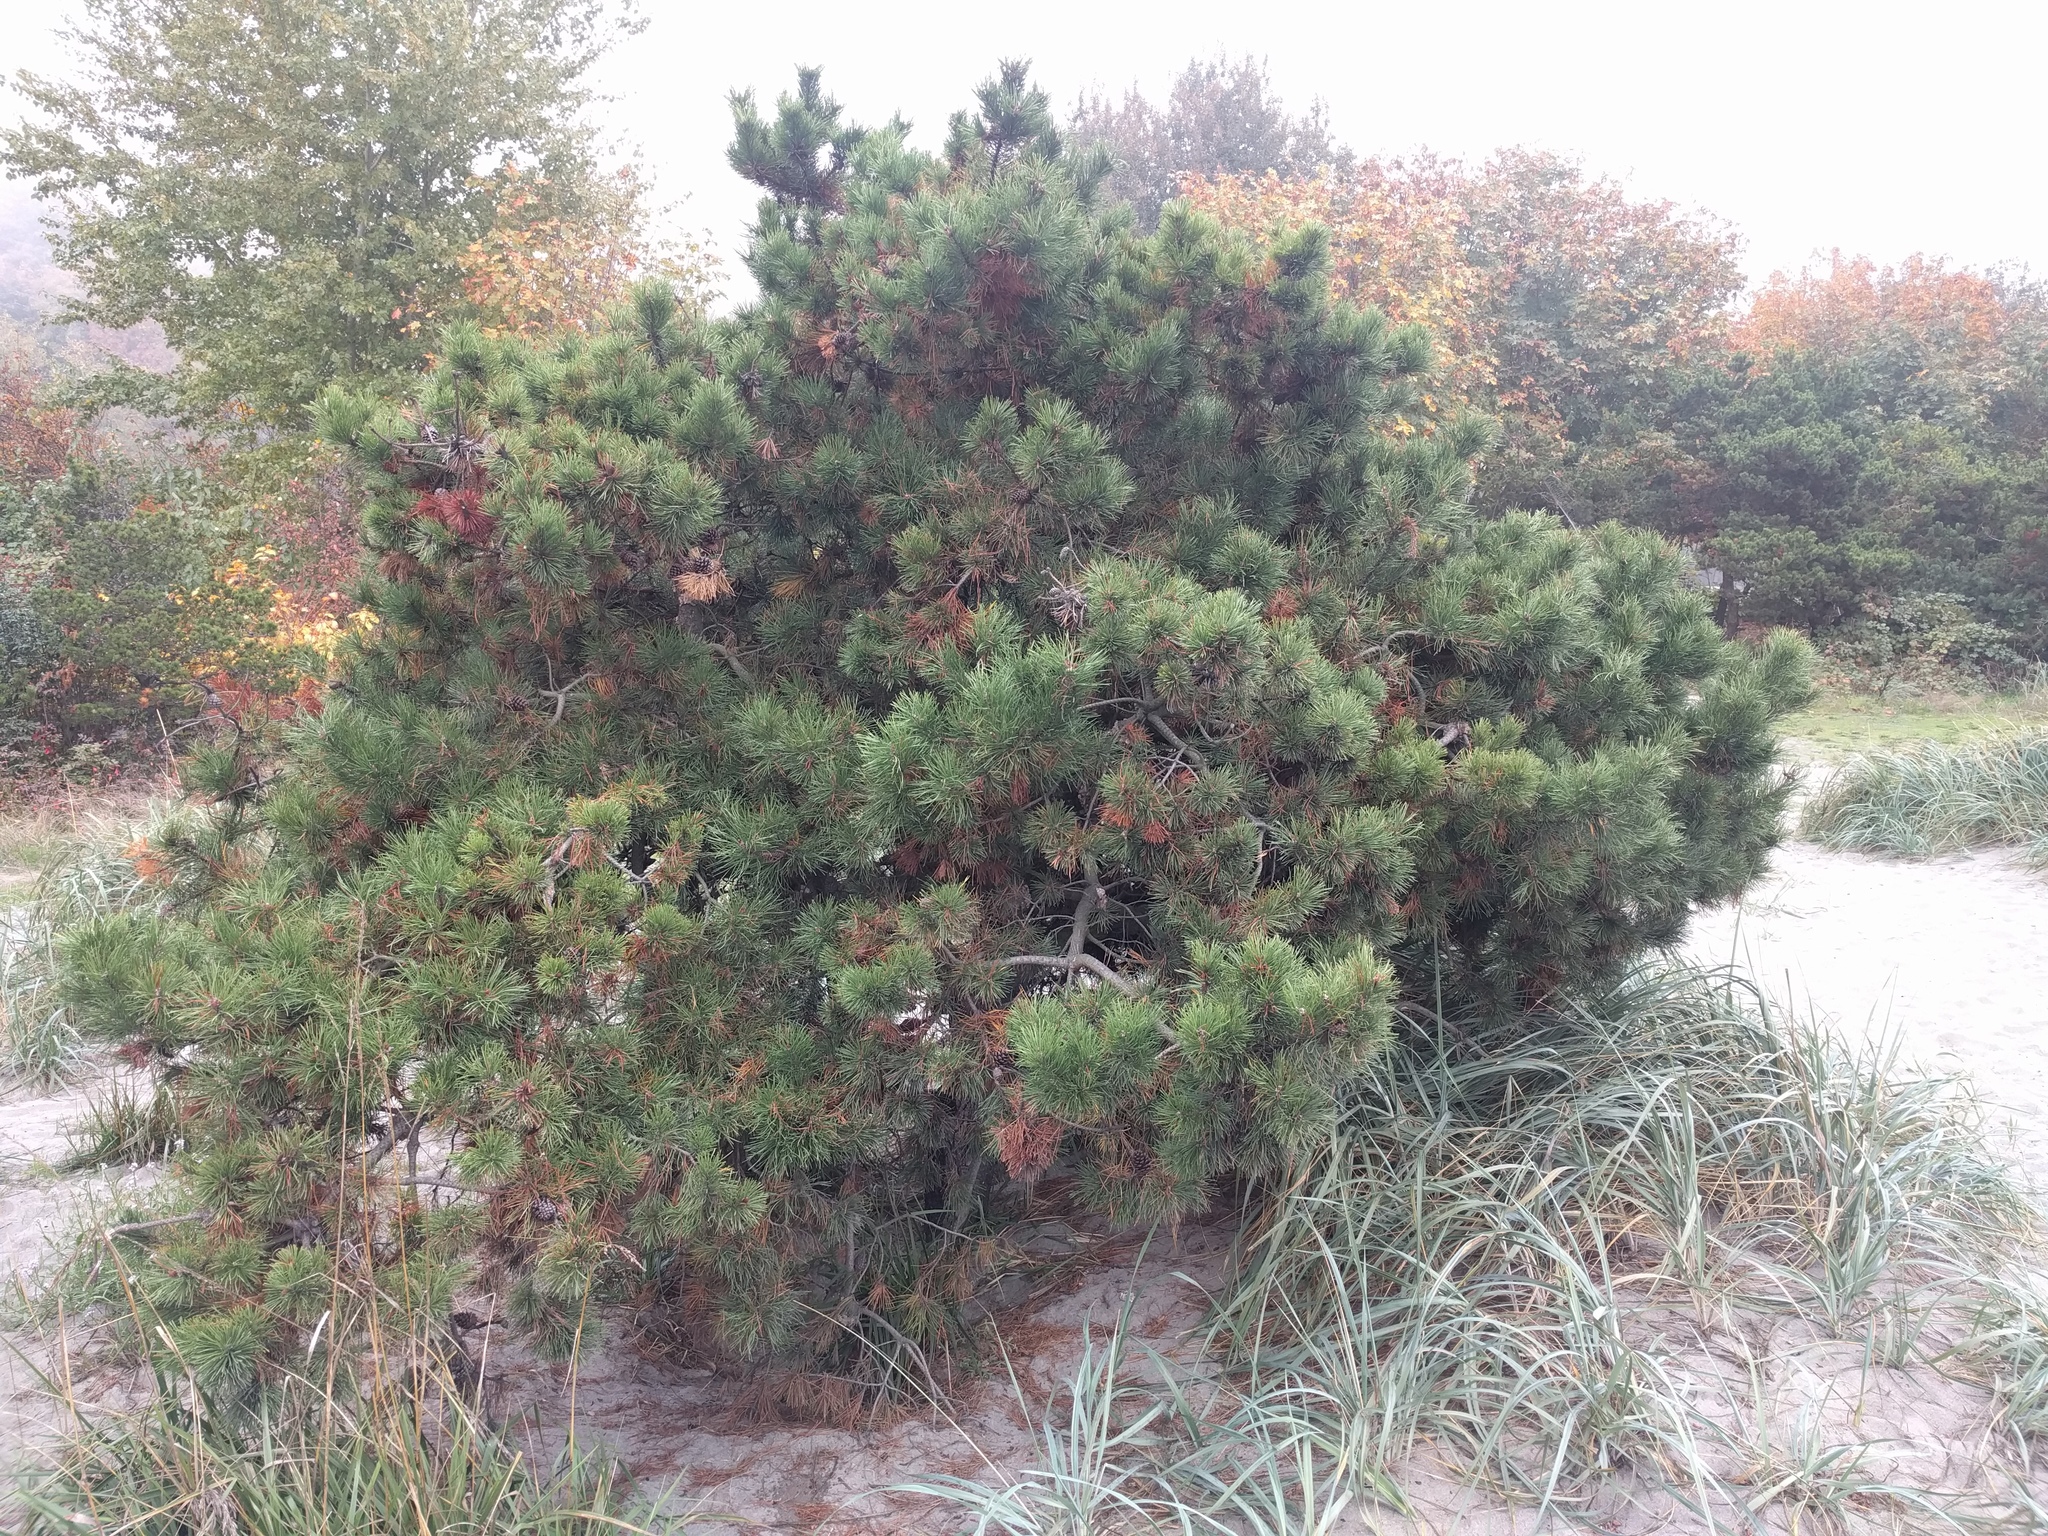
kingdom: Plantae
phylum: Tracheophyta
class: Pinopsida
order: Pinales
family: Pinaceae
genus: Pinus
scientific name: Pinus contorta
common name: Lodgepole pine
